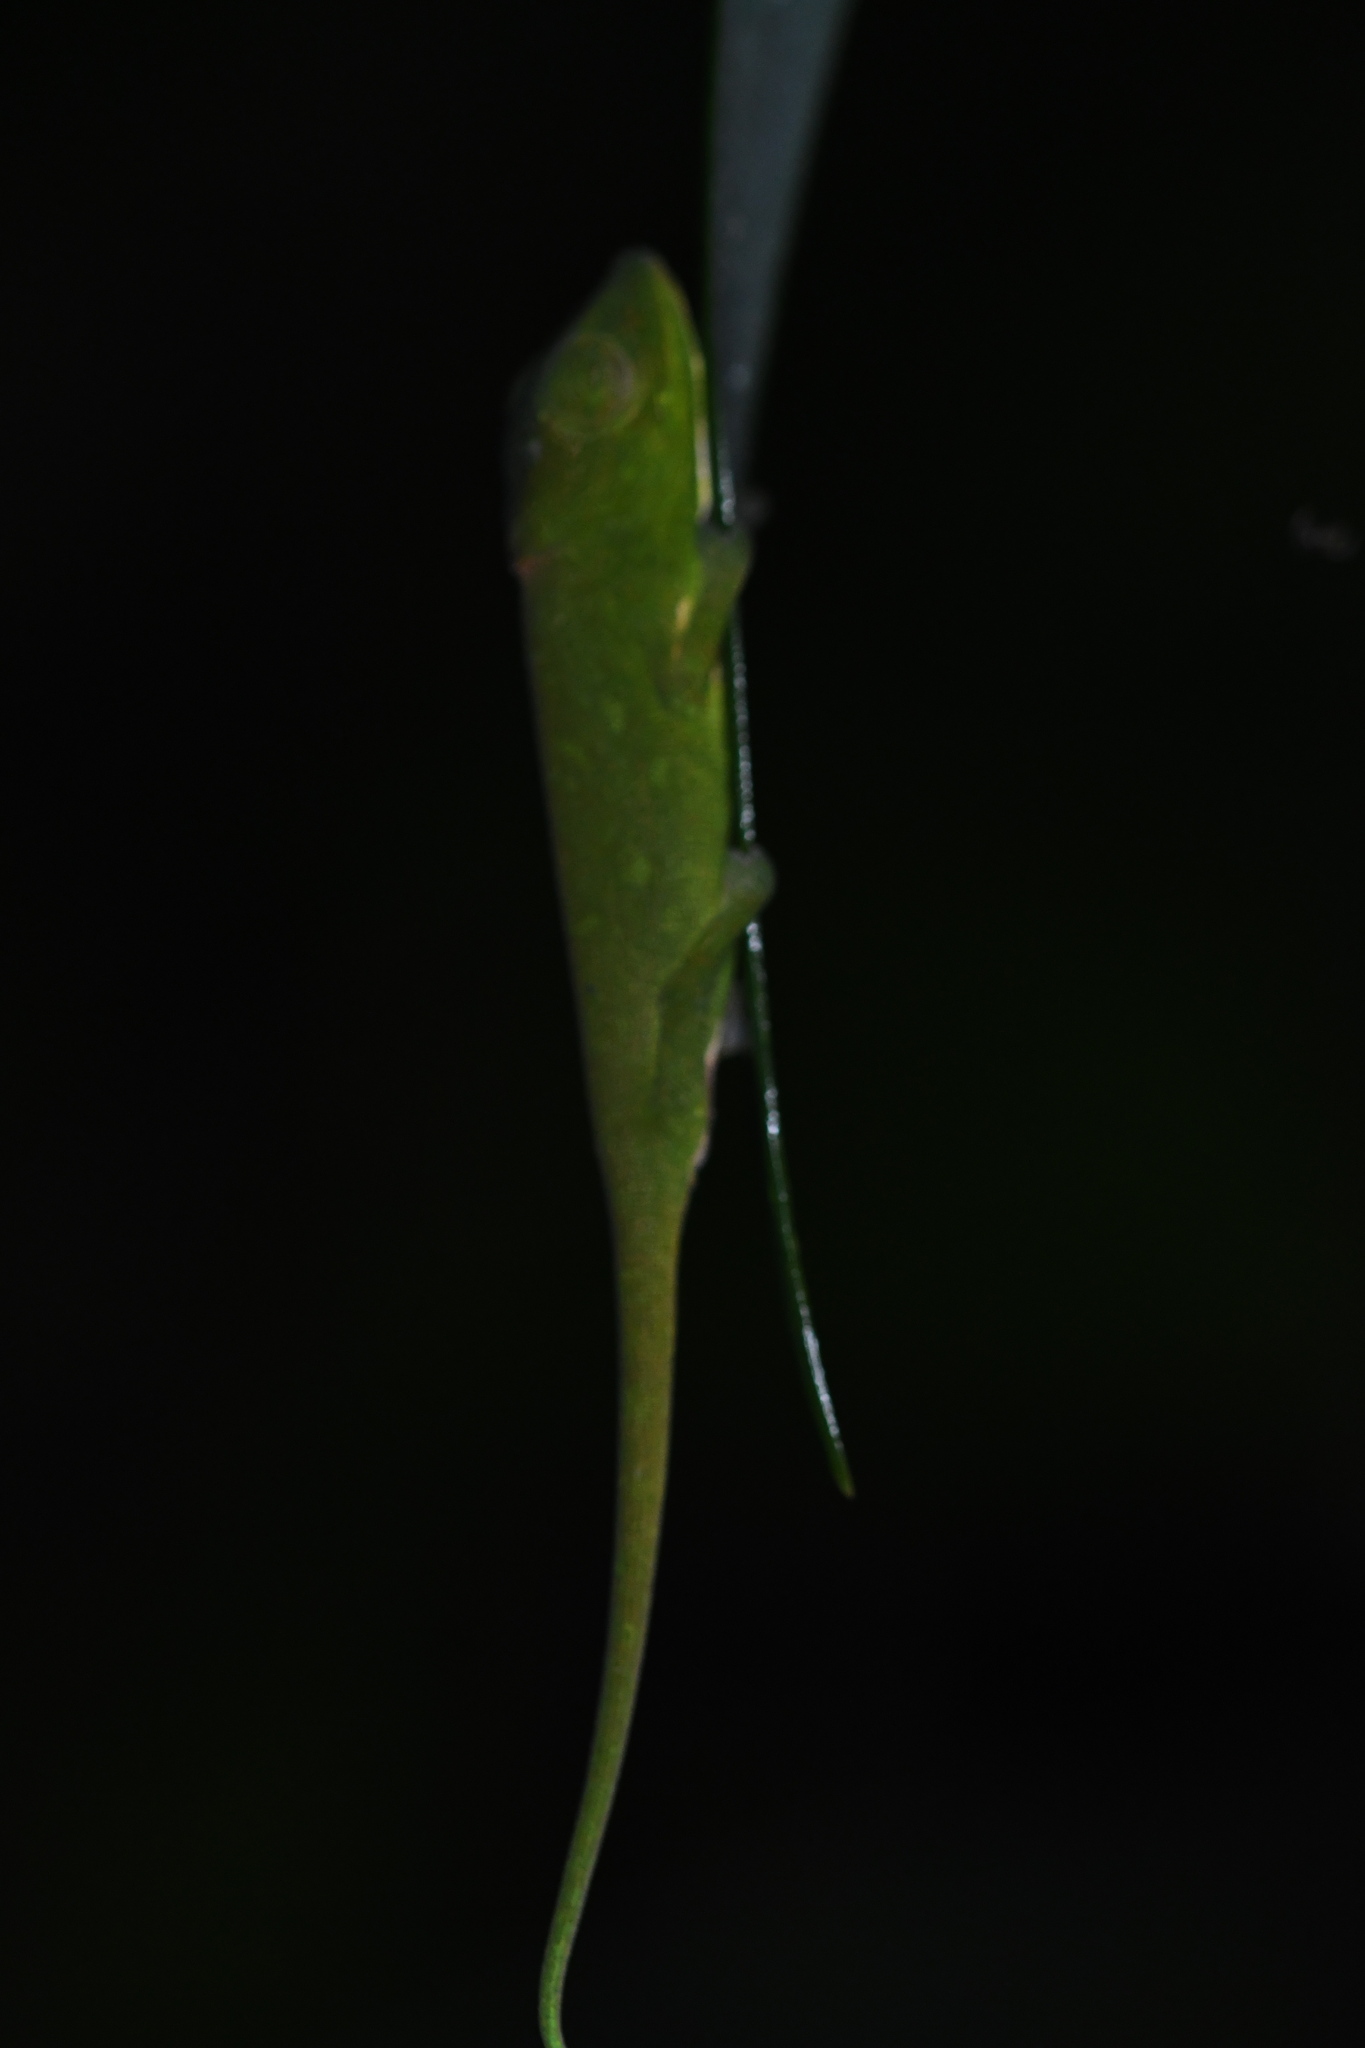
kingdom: Animalia
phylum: Chordata
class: Squamata
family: Chamaeleonidae
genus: Calumma
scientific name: Calumma glawi
